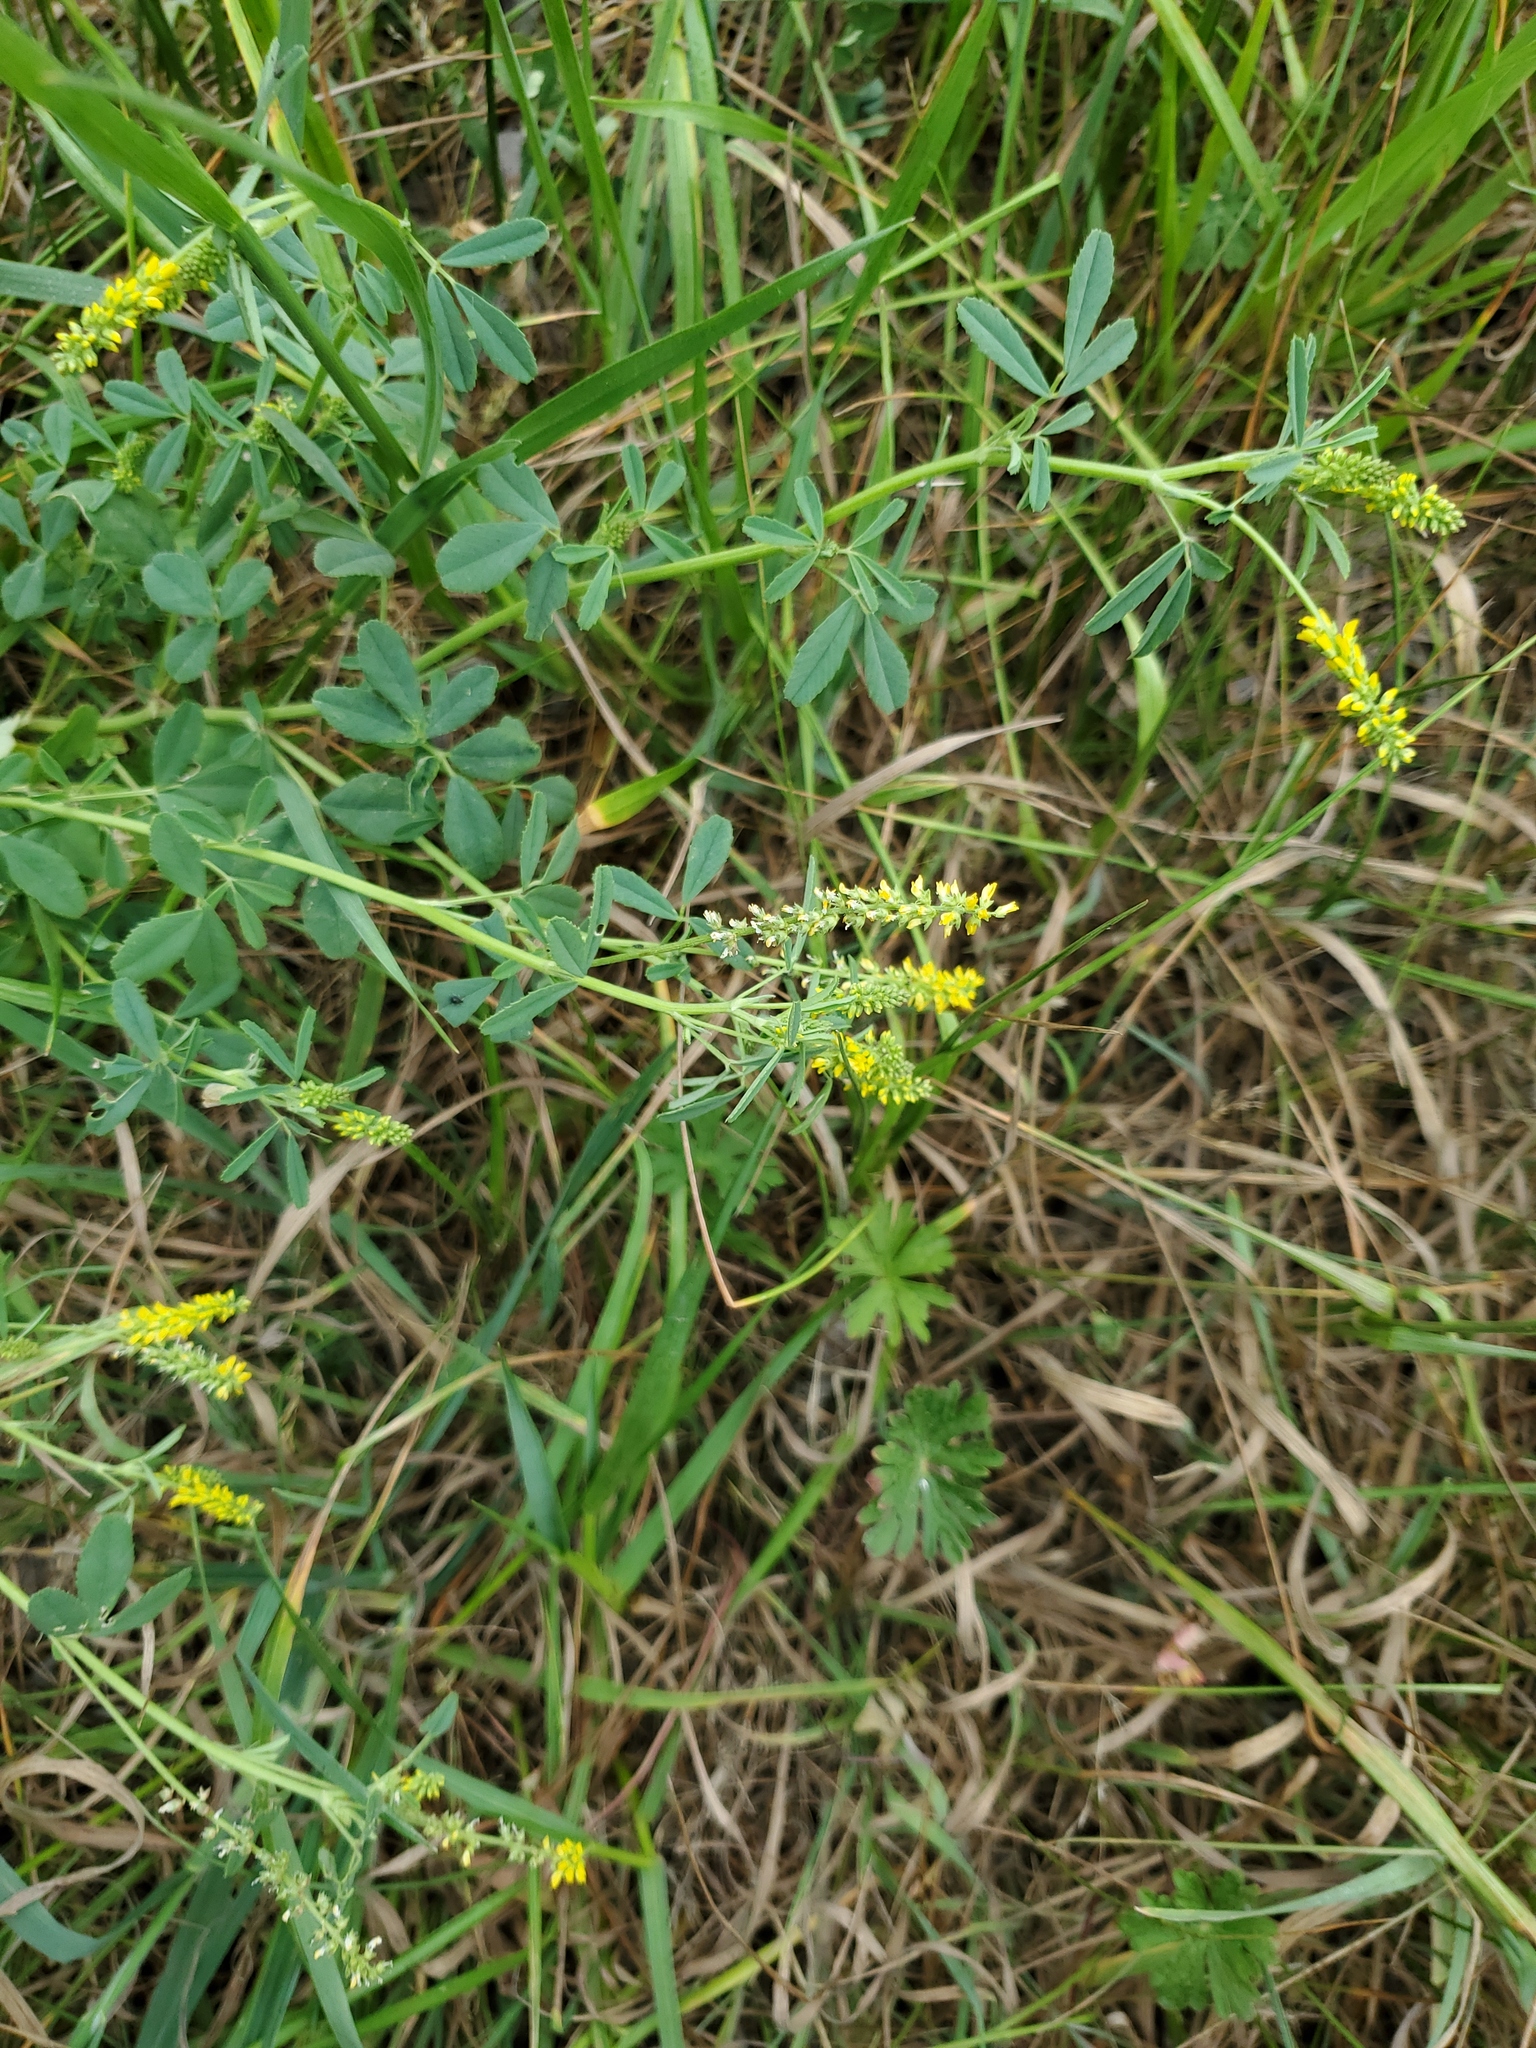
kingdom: Plantae
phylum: Tracheophyta
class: Magnoliopsida
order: Fabales
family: Fabaceae
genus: Melilotus
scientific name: Melilotus indicus
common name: Small melilot
